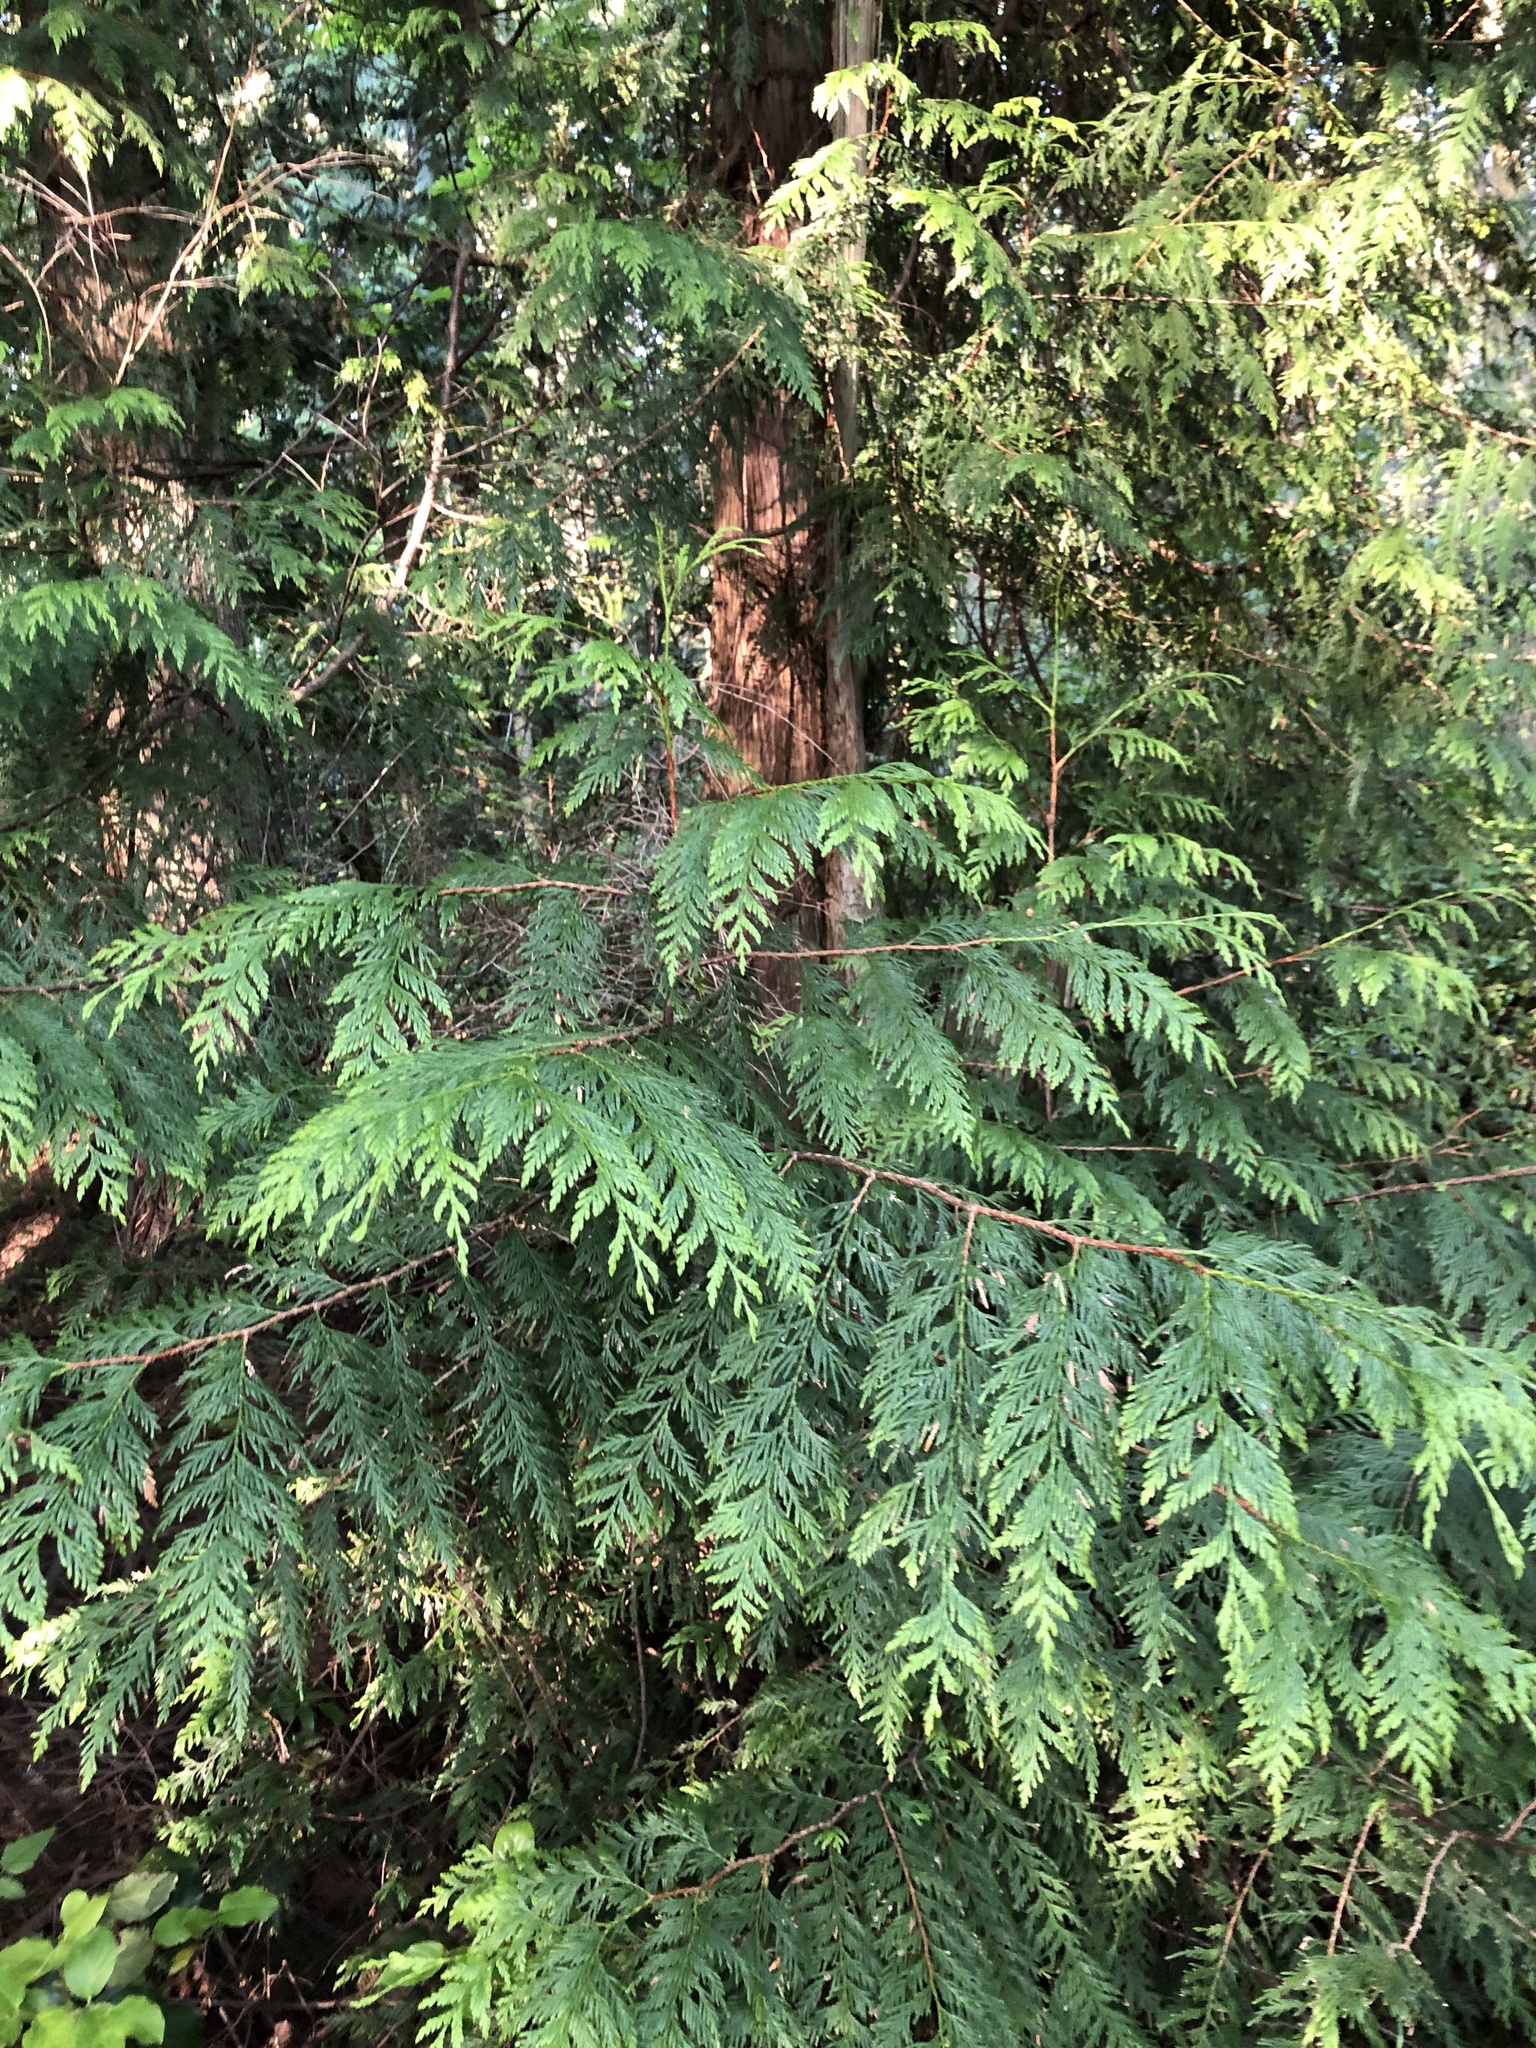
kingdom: Plantae
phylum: Tracheophyta
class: Pinopsida
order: Pinales
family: Cupressaceae
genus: Thuja
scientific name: Thuja plicata
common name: Western red-cedar
